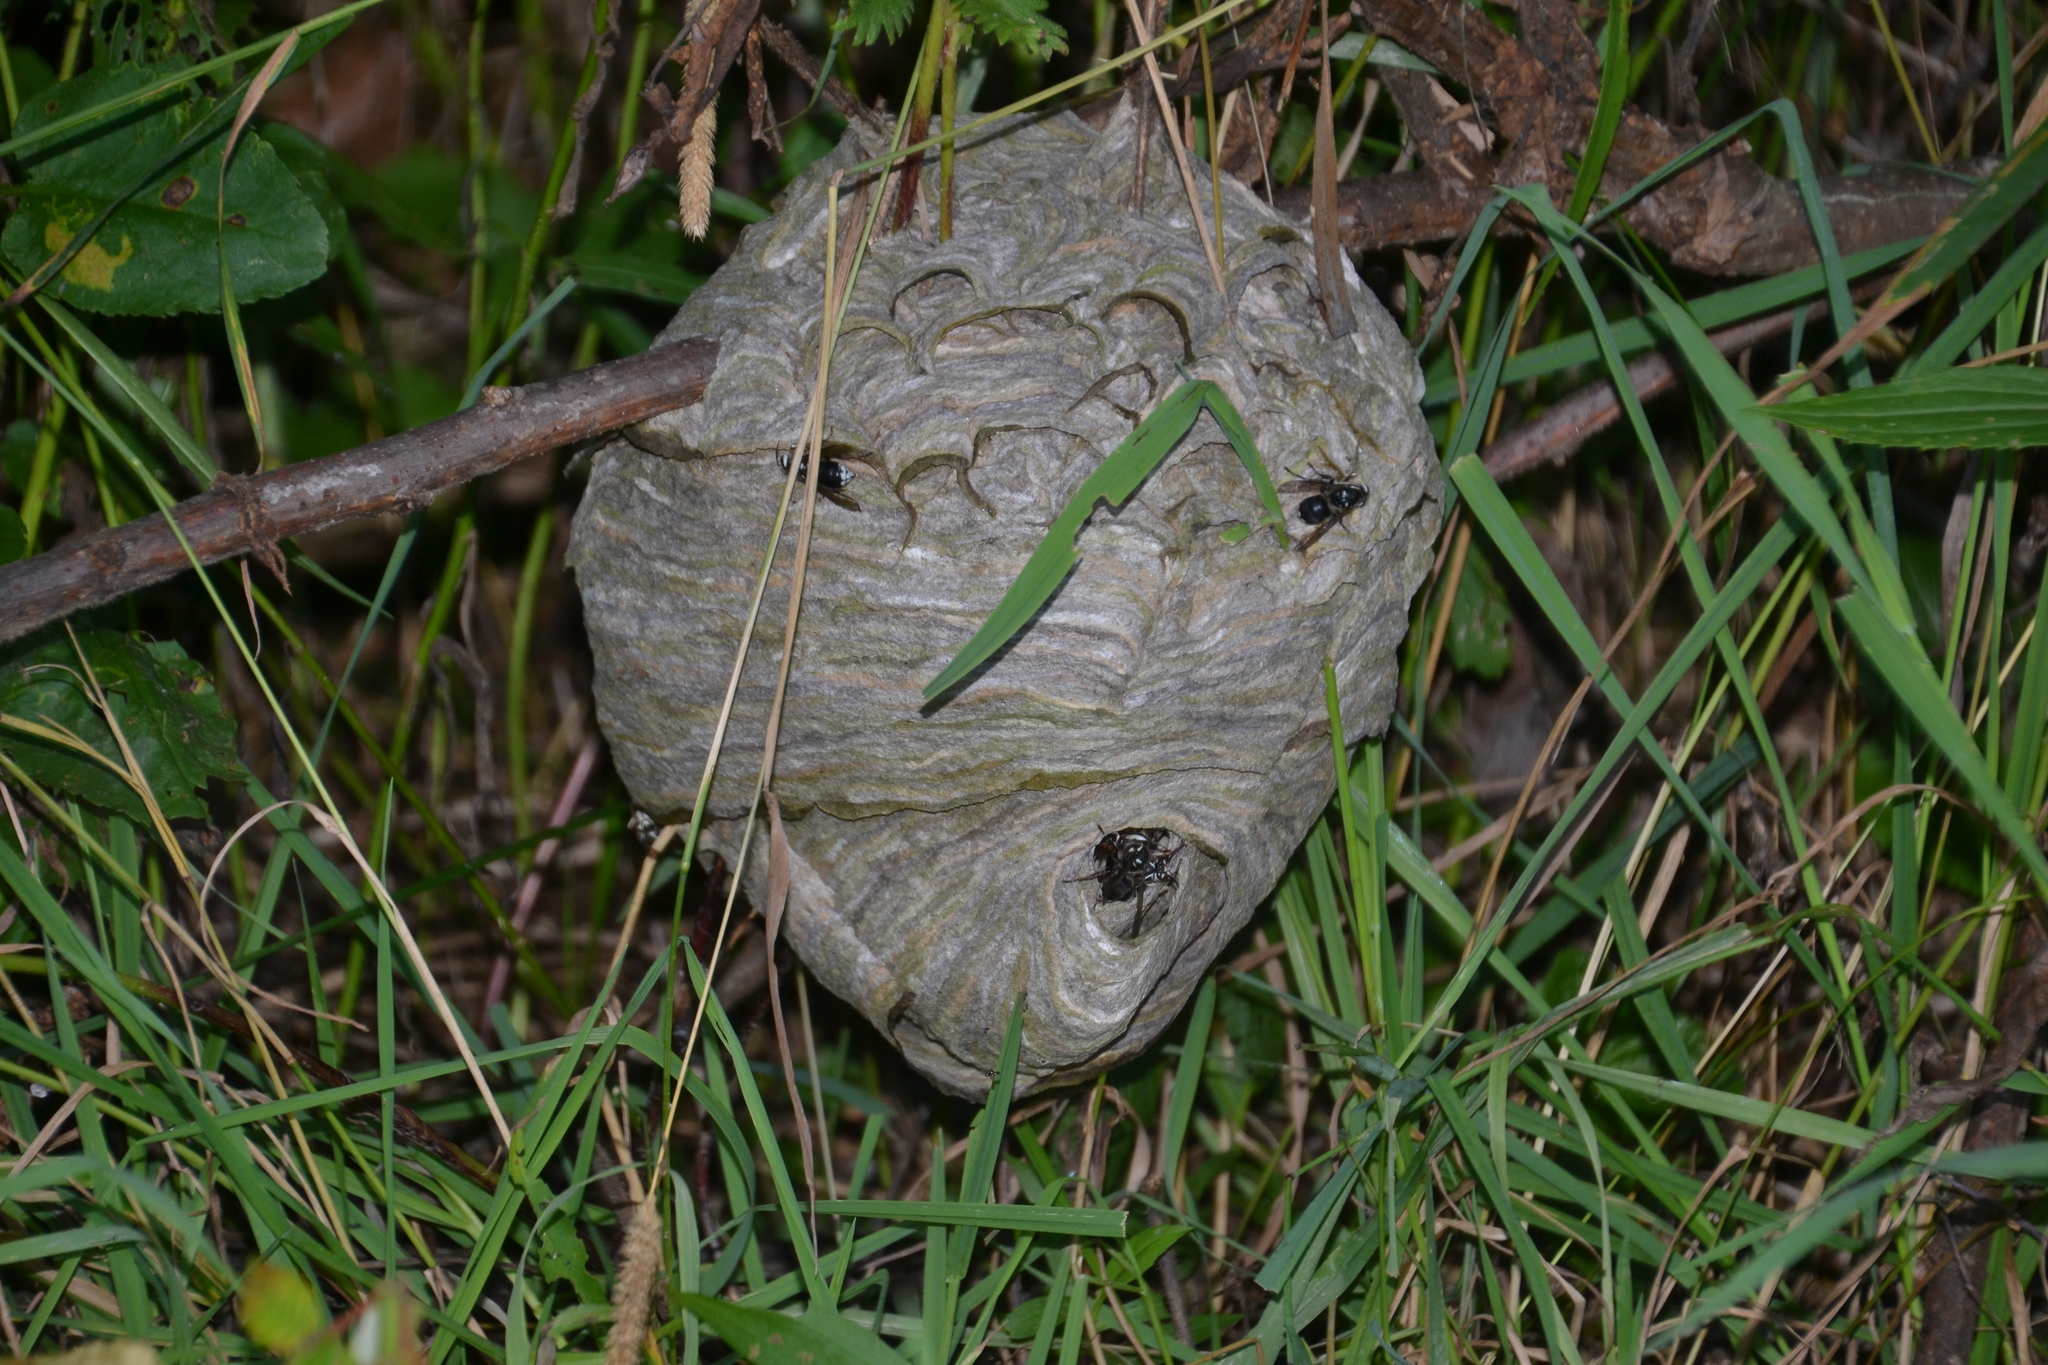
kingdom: Animalia
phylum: Arthropoda
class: Insecta
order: Hymenoptera
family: Vespidae
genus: Dolichovespula
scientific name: Dolichovespula maculata
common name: Bald-faced hornet
